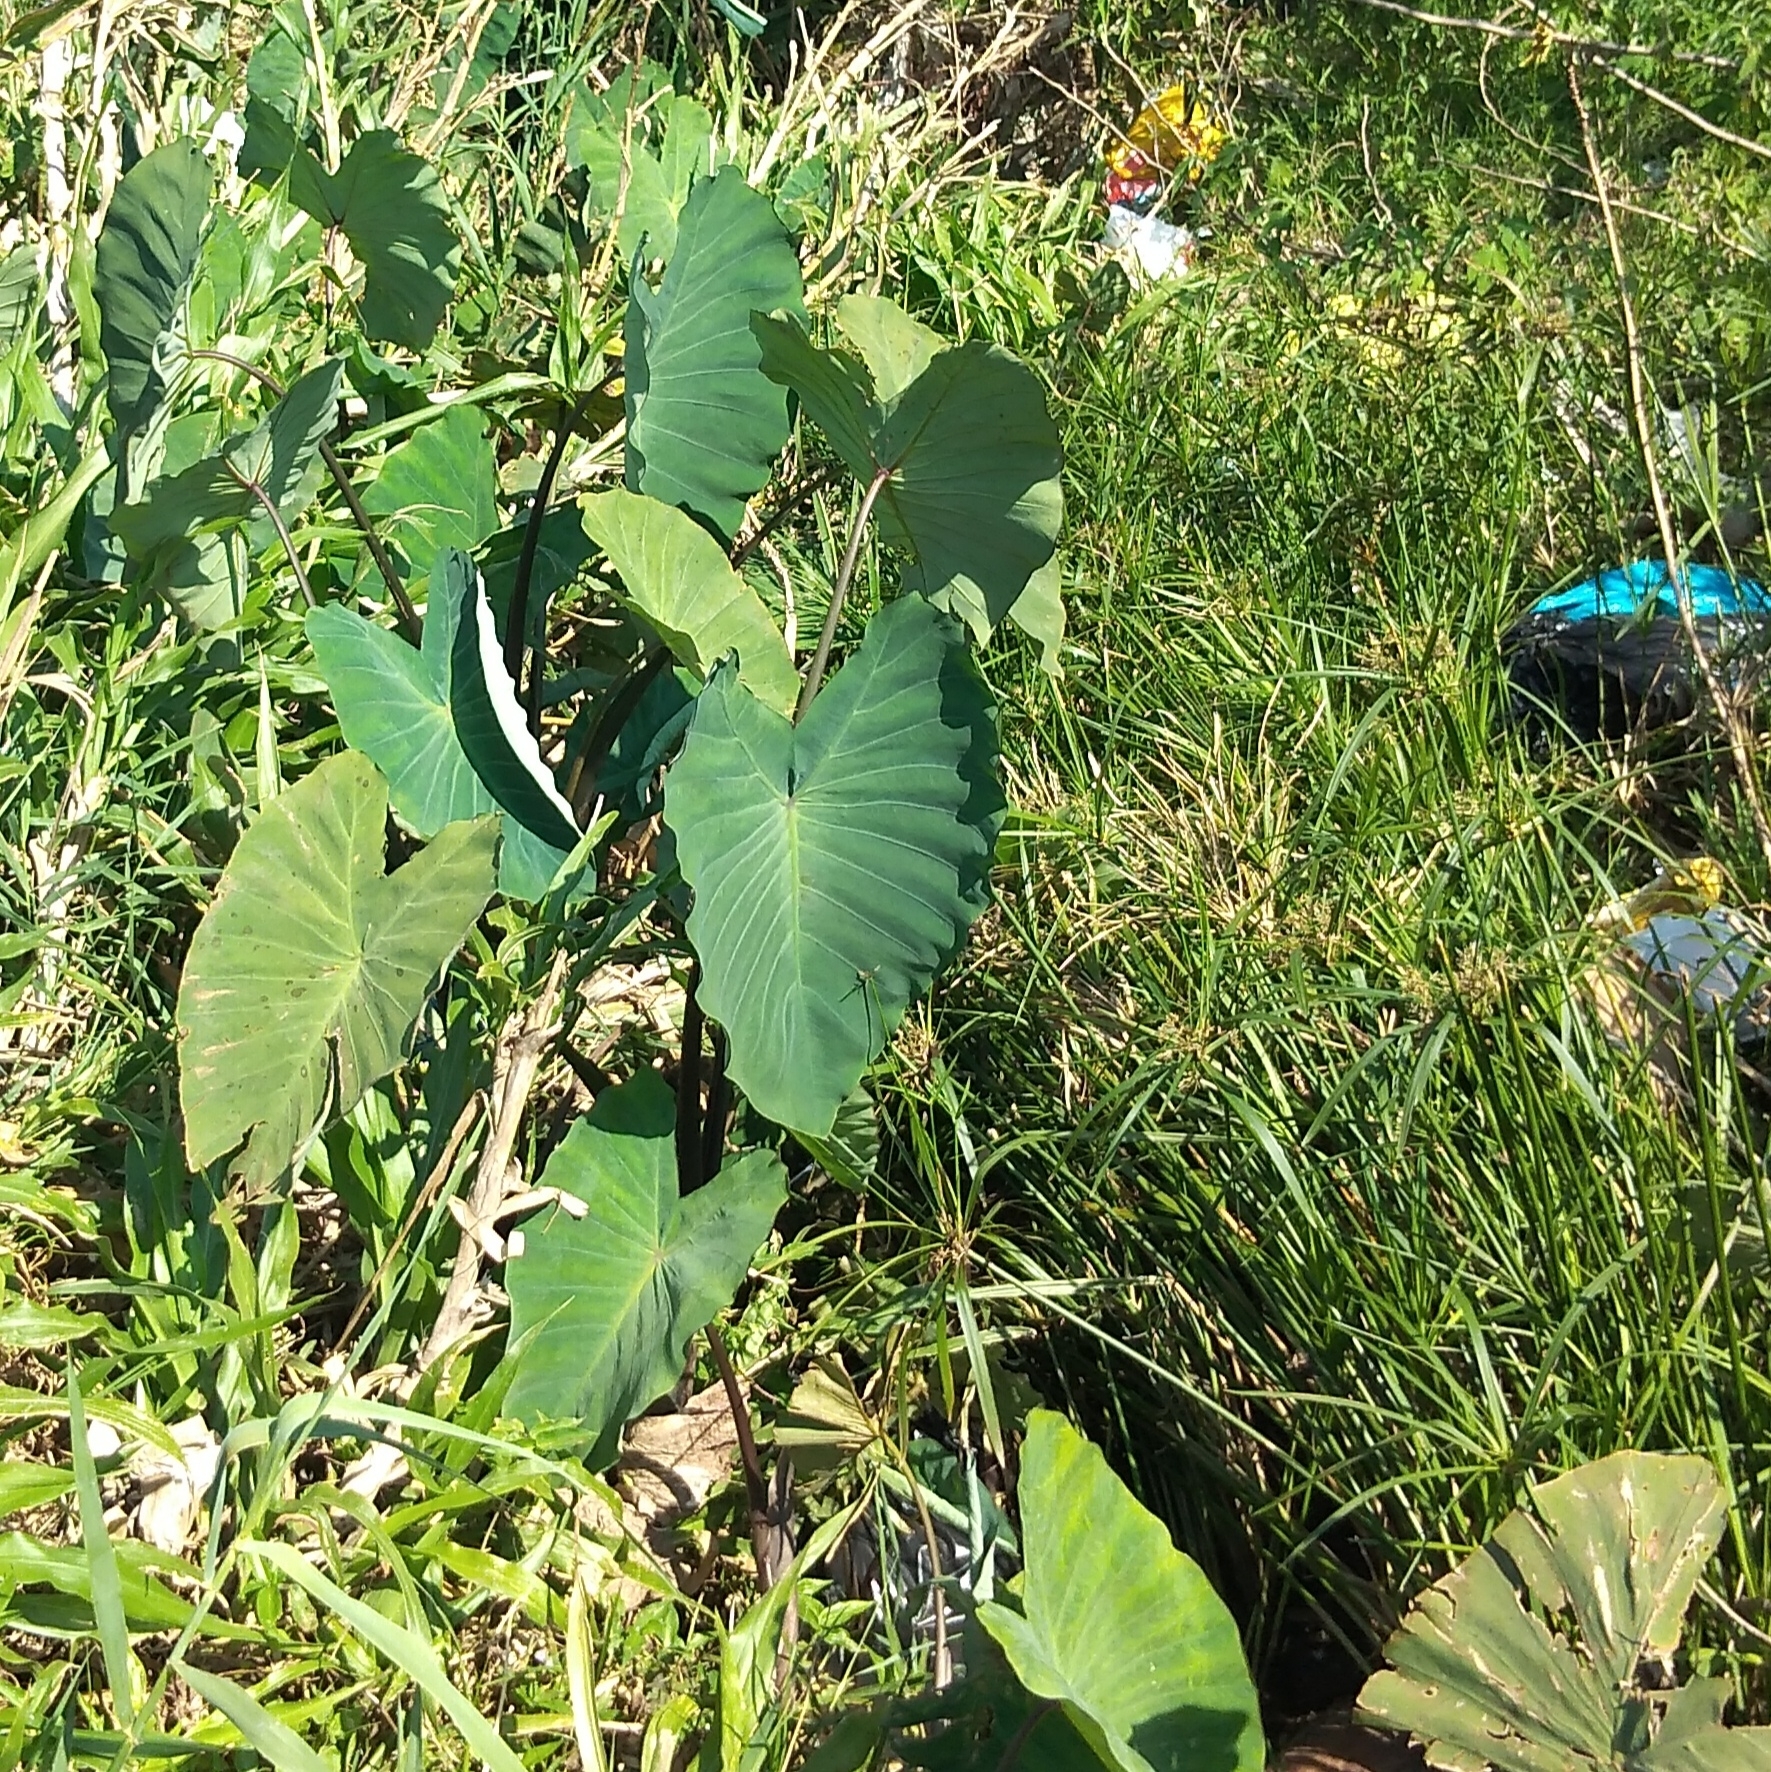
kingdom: Plantae
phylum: Tracheophyta
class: Liliopsida
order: Alismatales
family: Araceae
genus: Colocasia
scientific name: Colocasia esculenta
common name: Taro
